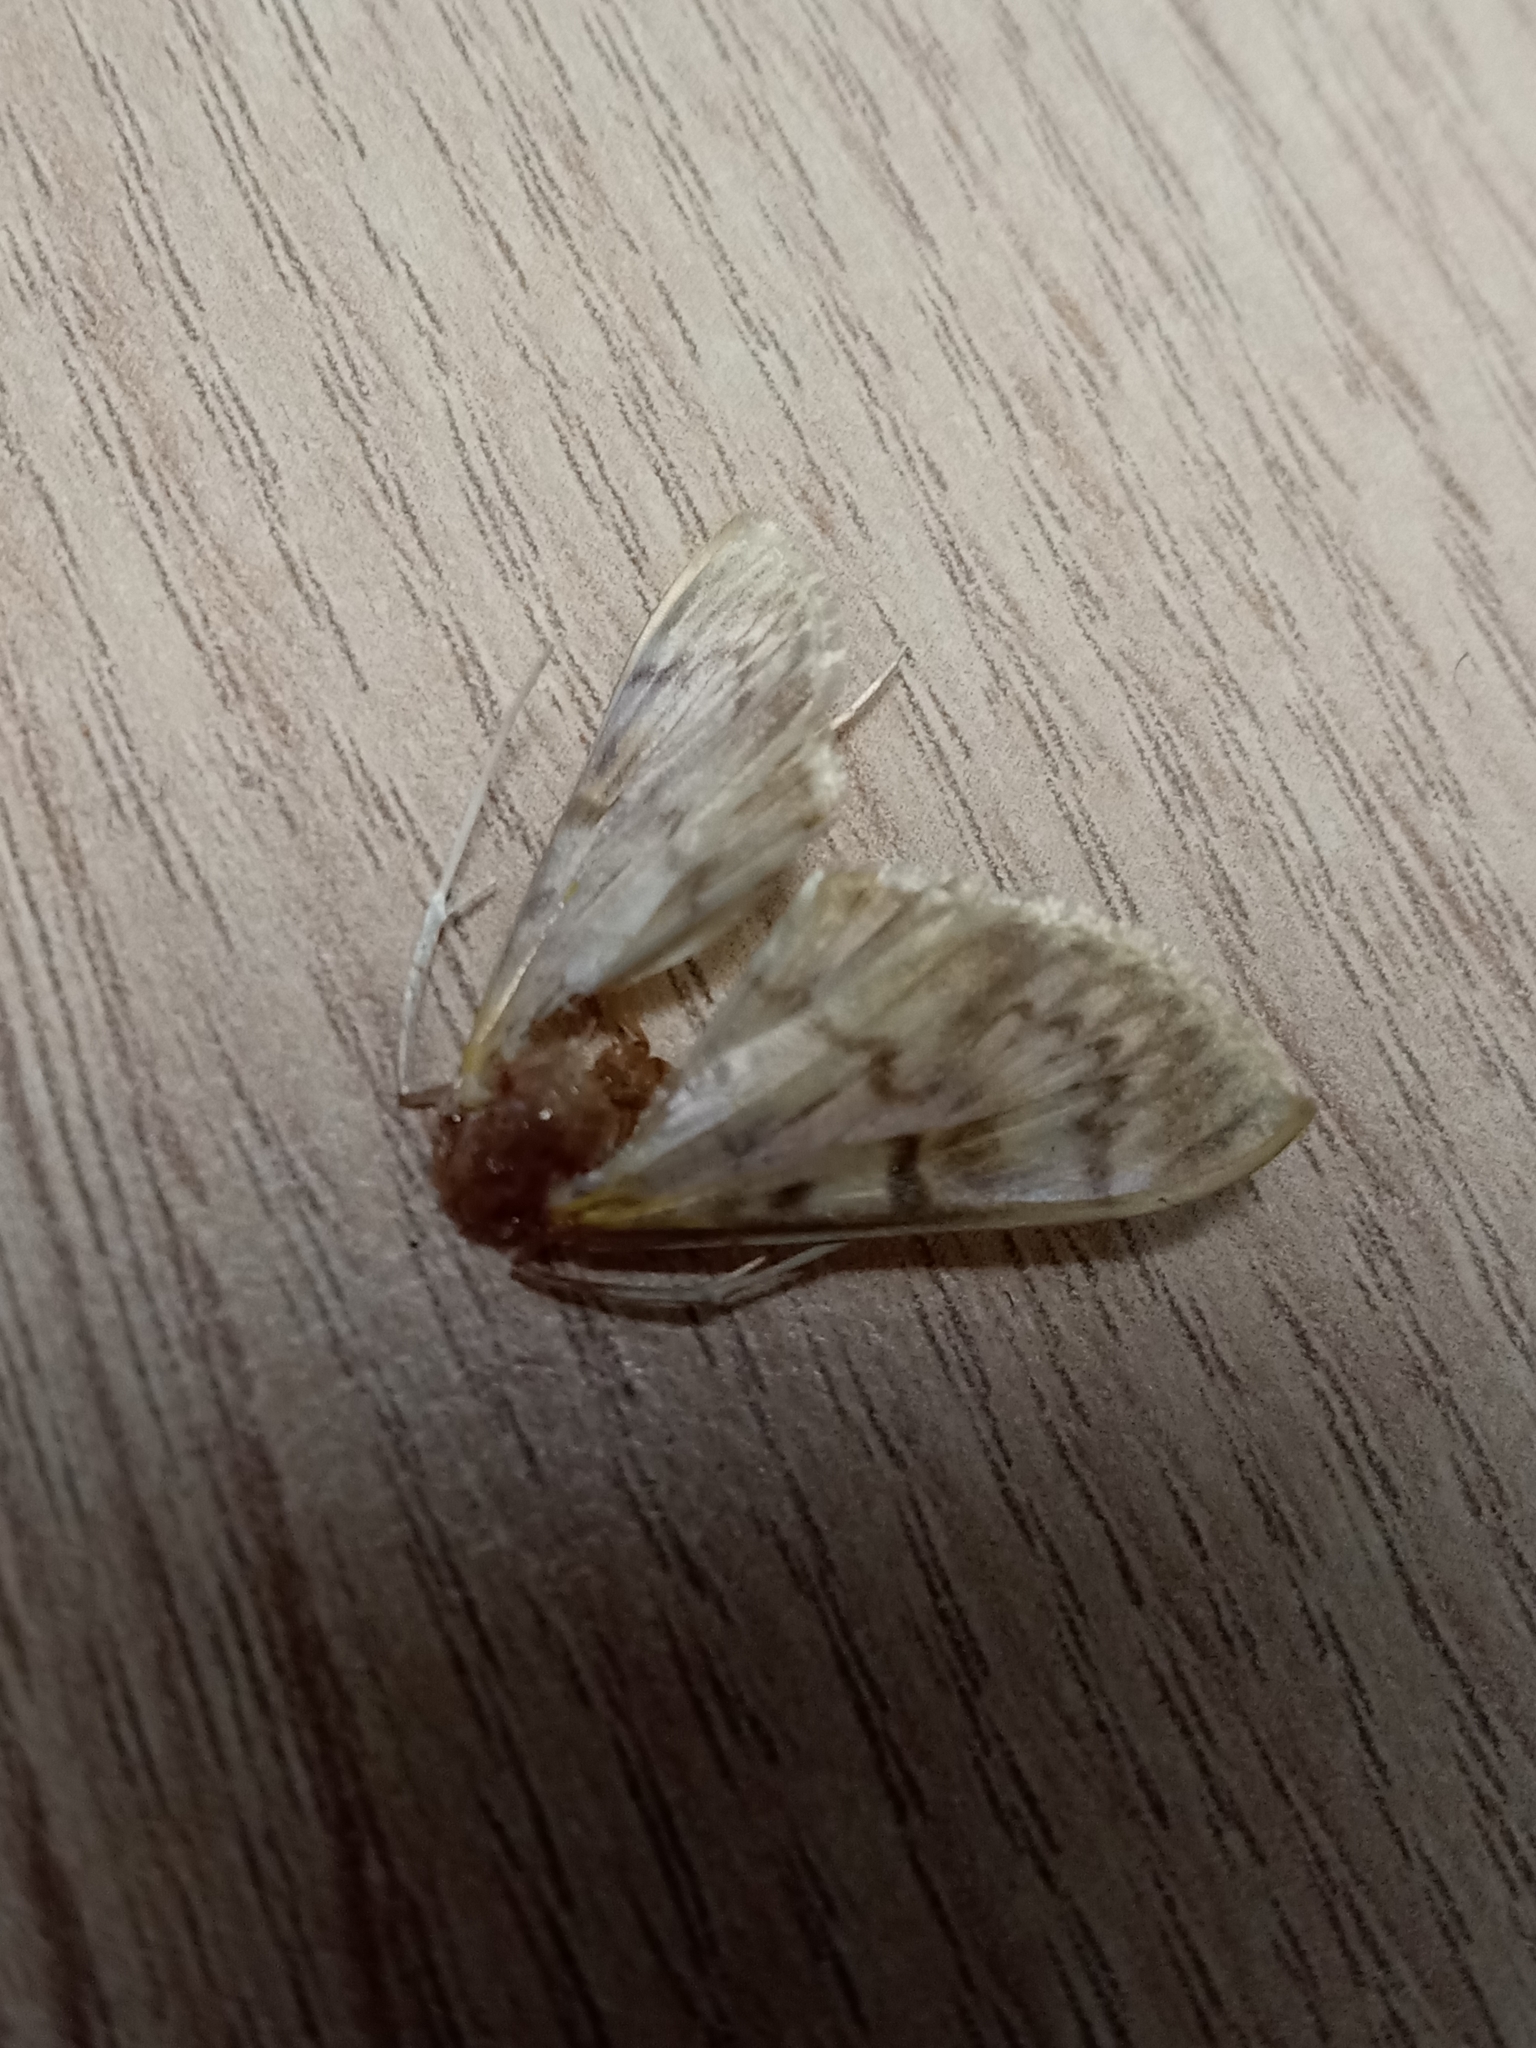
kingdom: Animalia
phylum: Arthropoda
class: Insecta
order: Lepidoptera
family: Crambidae
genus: Patania
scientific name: Patania ruralis
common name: Mother of pearl
